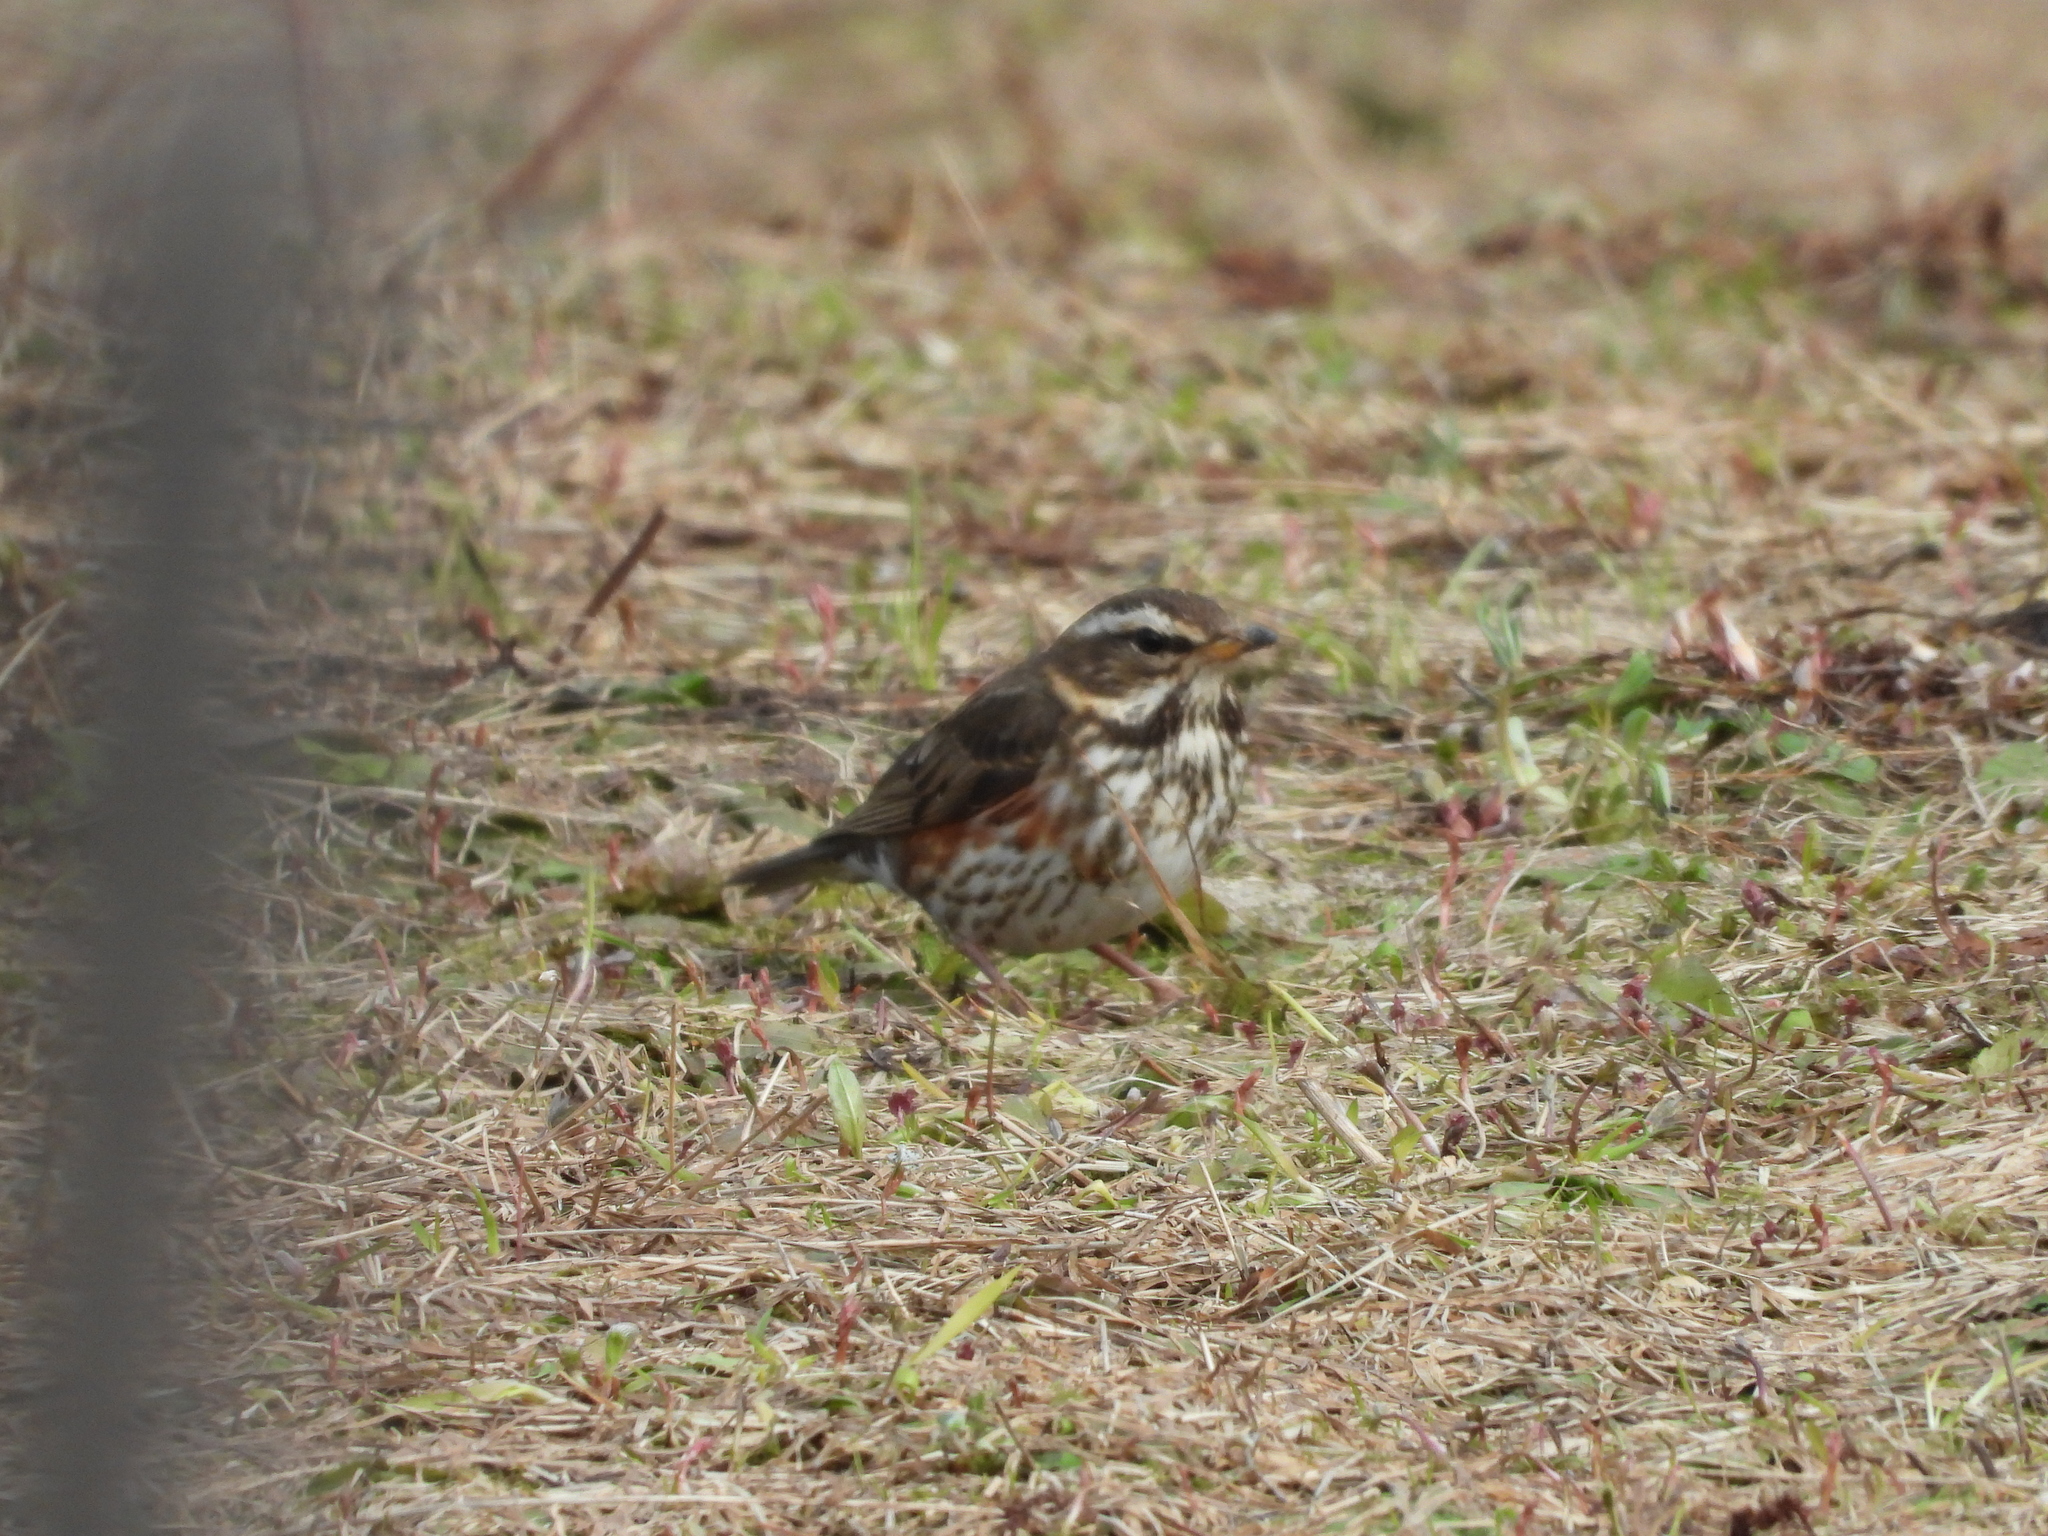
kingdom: Animalia
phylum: Chordata
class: Aves
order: Passeriformes
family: Turdidae
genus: Turdus
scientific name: Turdus iliacus
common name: Redwing
